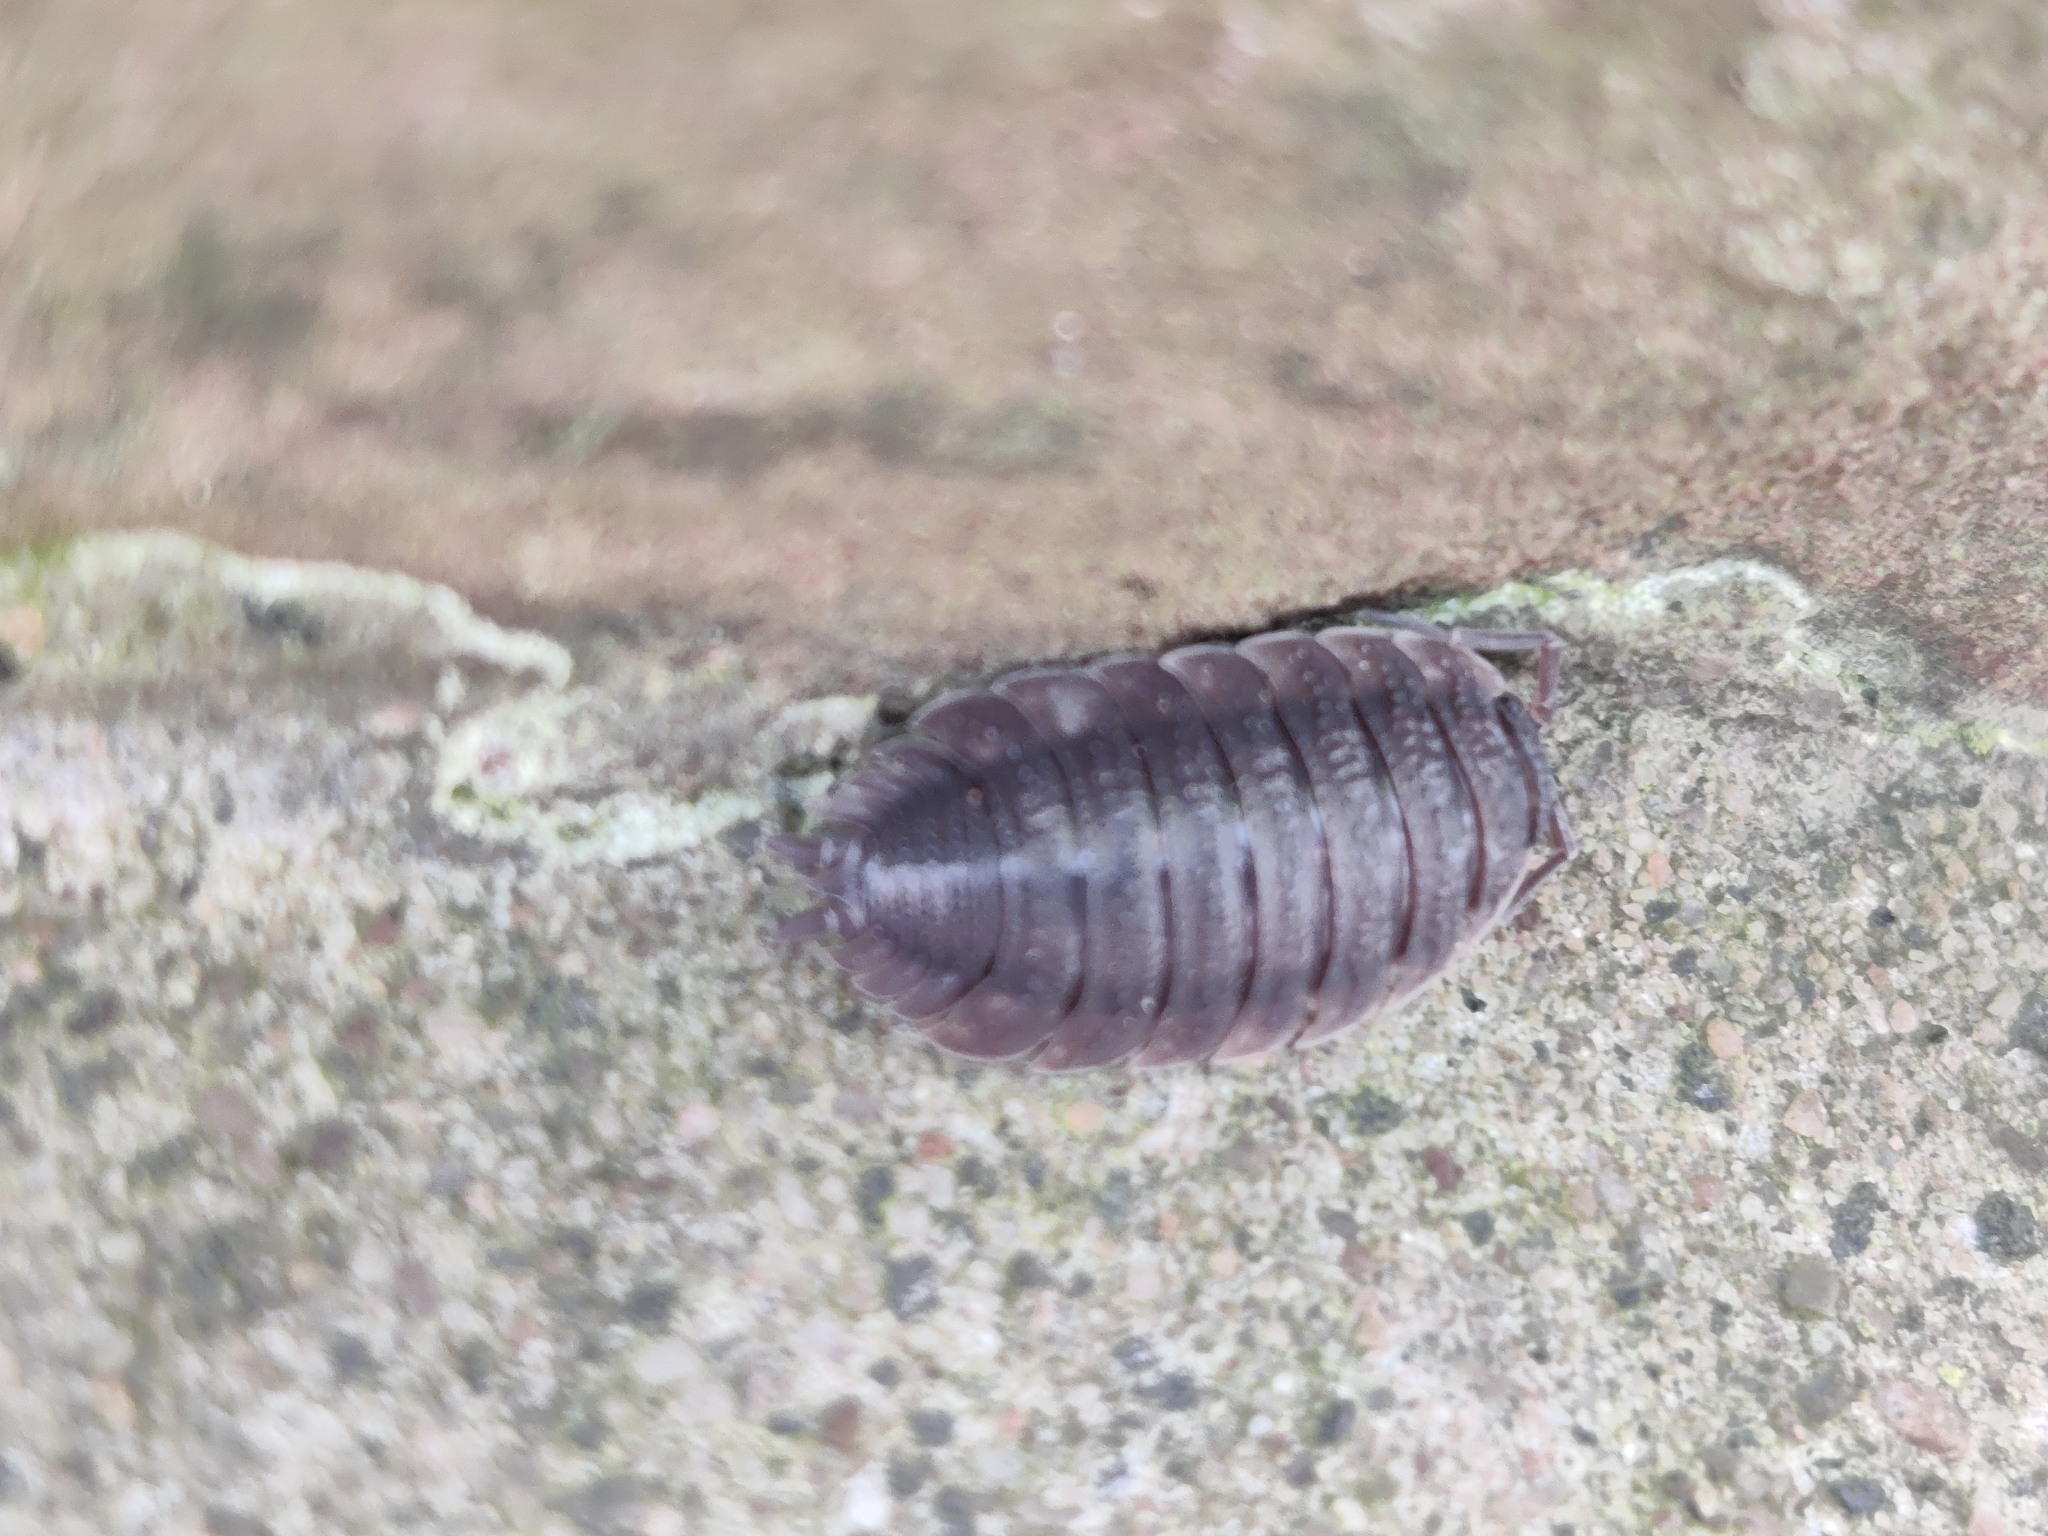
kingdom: Animalia
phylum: Arthropoda
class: Malacostraca
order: Isopoda
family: Porcellionidae
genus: Porcellio
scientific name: Porcellio scaber
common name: Common rough woodlouse
